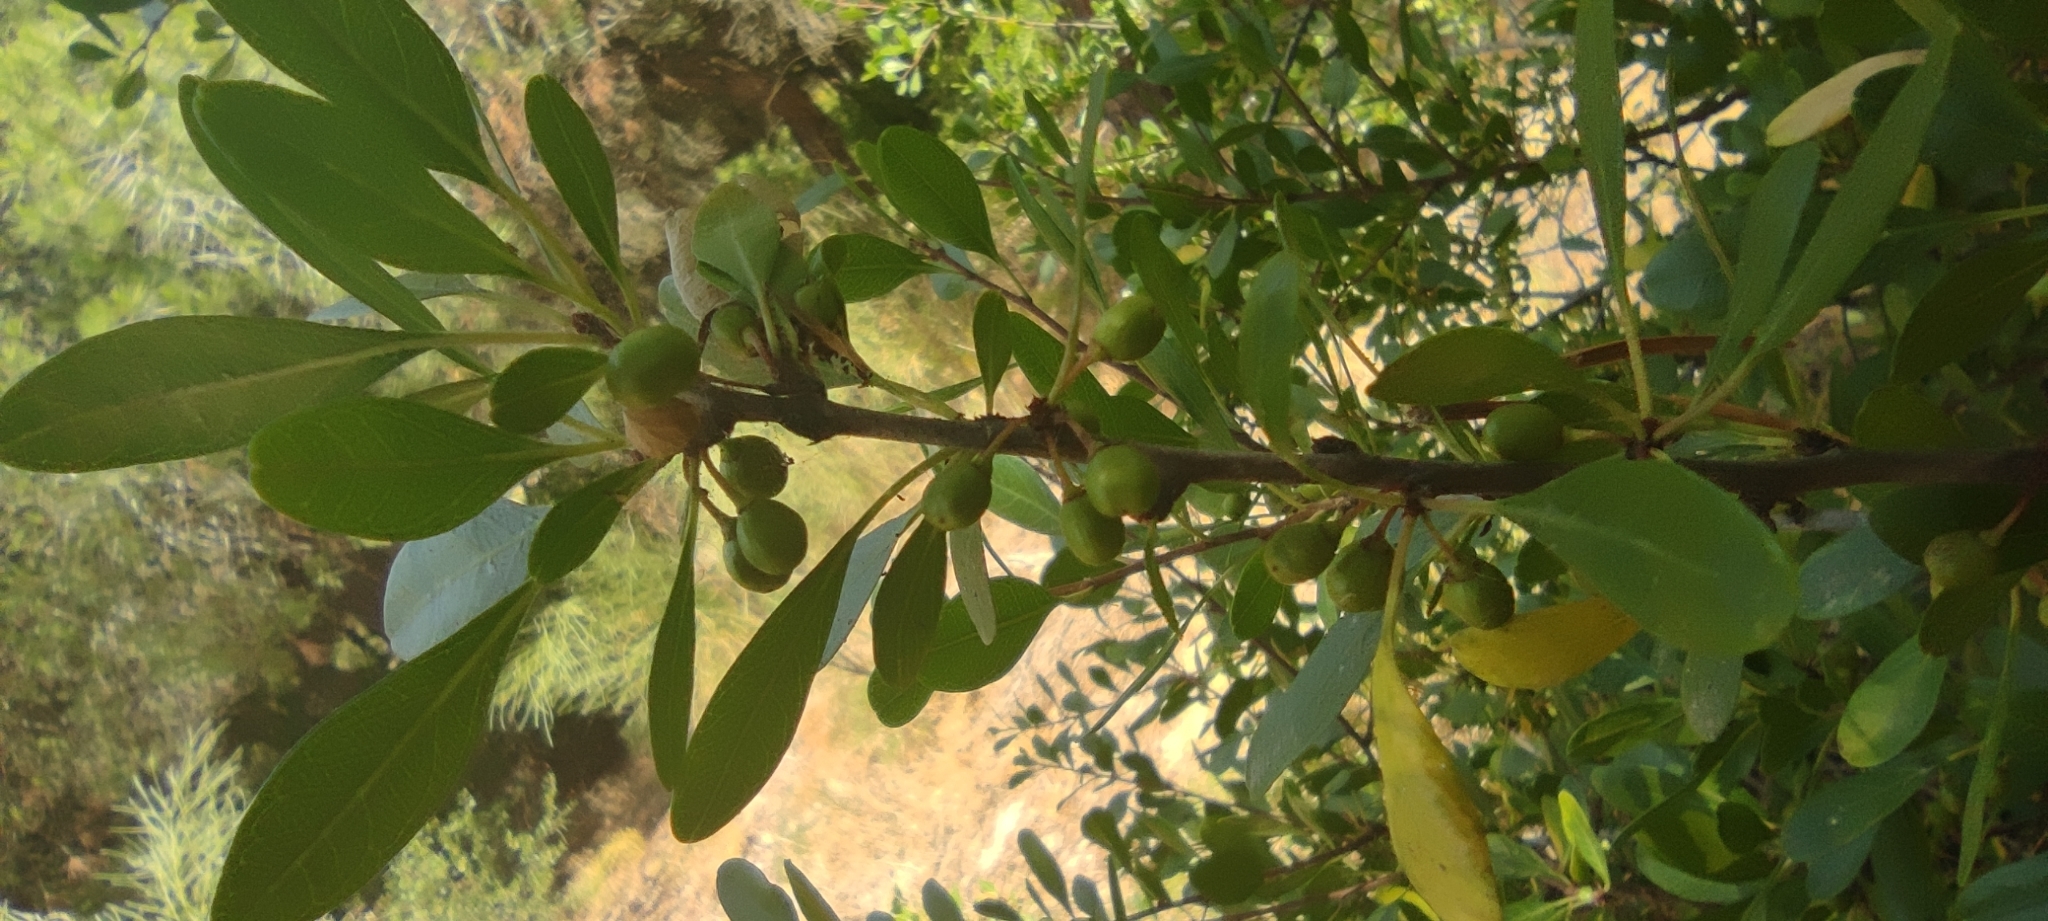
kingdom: Plantae
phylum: Tracheophyta
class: Magnoliopsida
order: Rosales
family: Rhamnaceae
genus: Rhamnus
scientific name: Rhamnus oleoides
